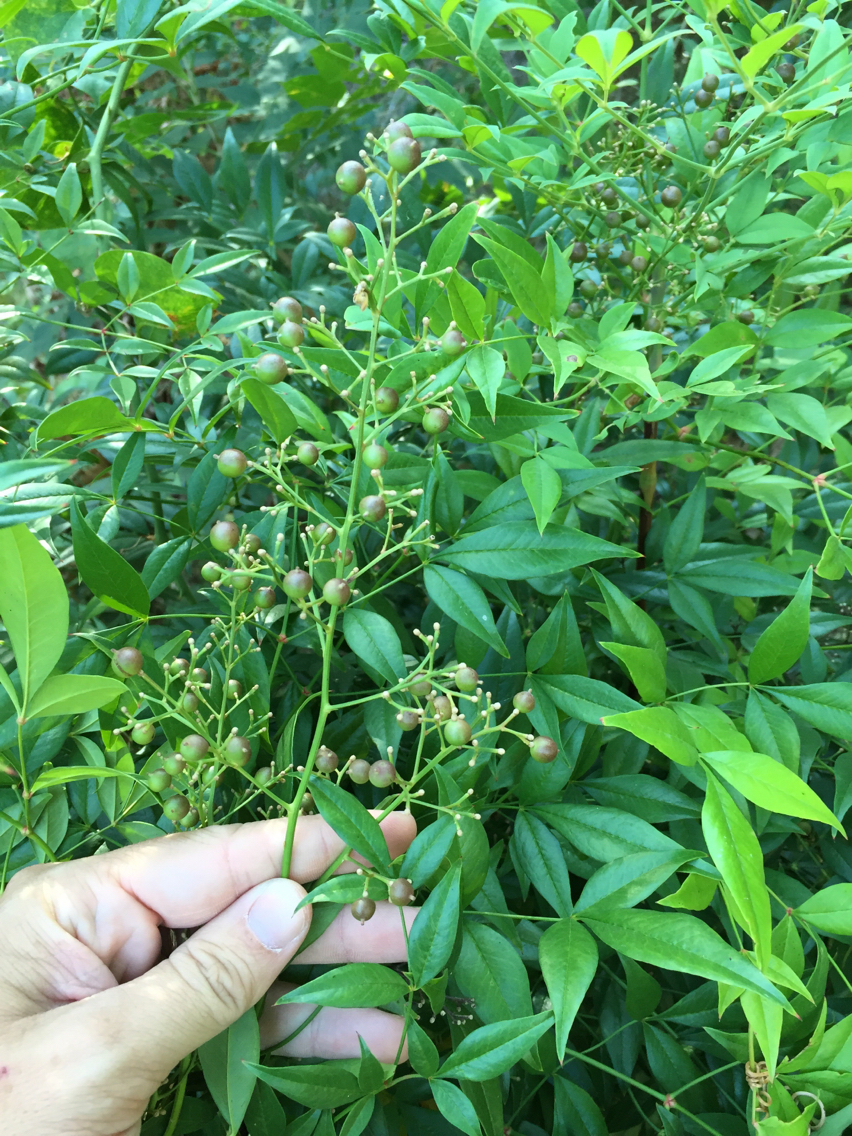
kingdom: Plantae
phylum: Tracheophyta
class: Magnoliopsida
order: Ranunculales
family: Berberidaceae
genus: Nandina
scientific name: Nandina domestica
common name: Sacred bamboo
